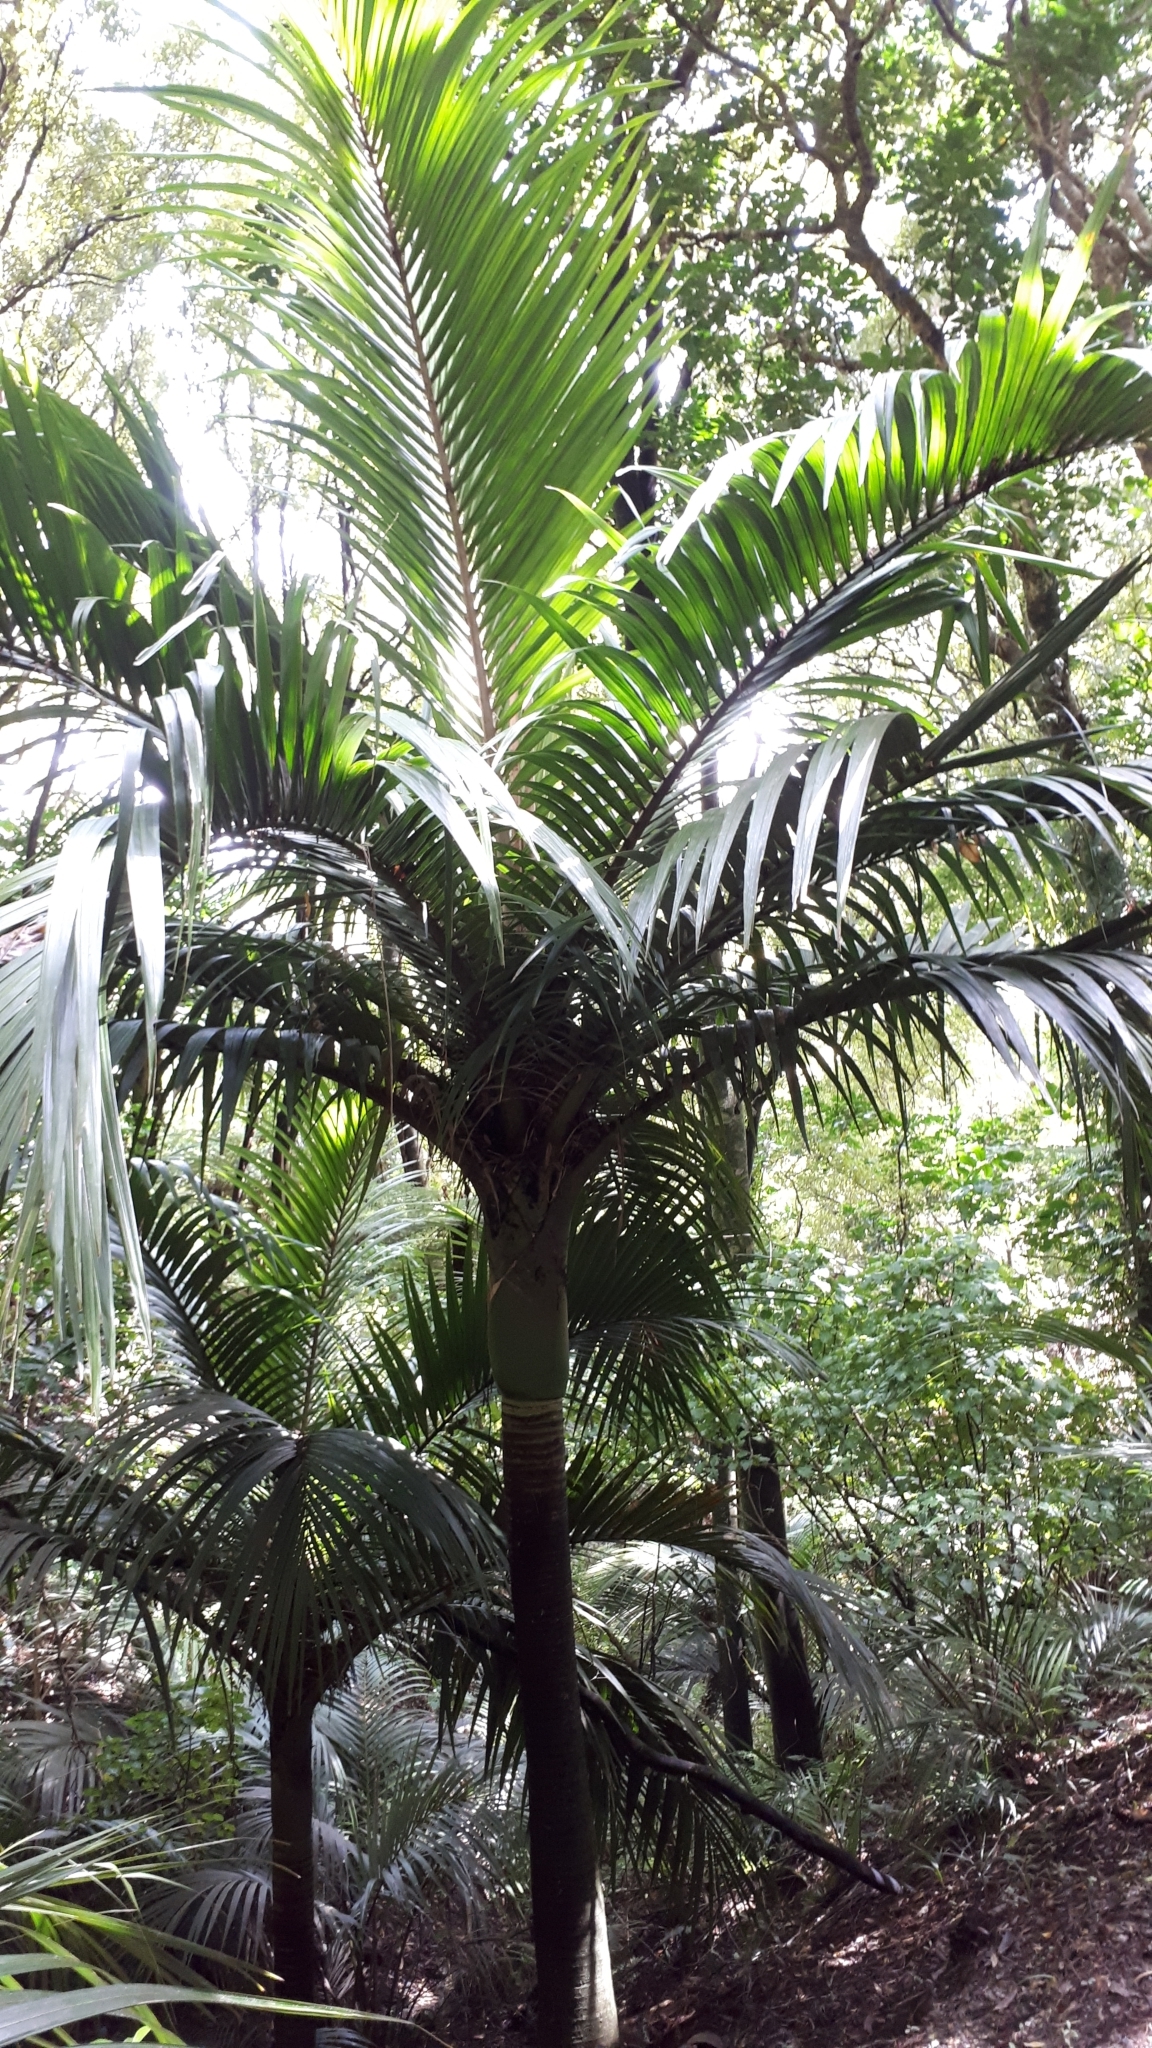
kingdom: Plantae
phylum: Tracheophyta
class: Liliopsida
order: Arecales
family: Arecaceae
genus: Rhopalostylis
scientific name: Rhopalostylis sapida
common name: Feather-duster palm
